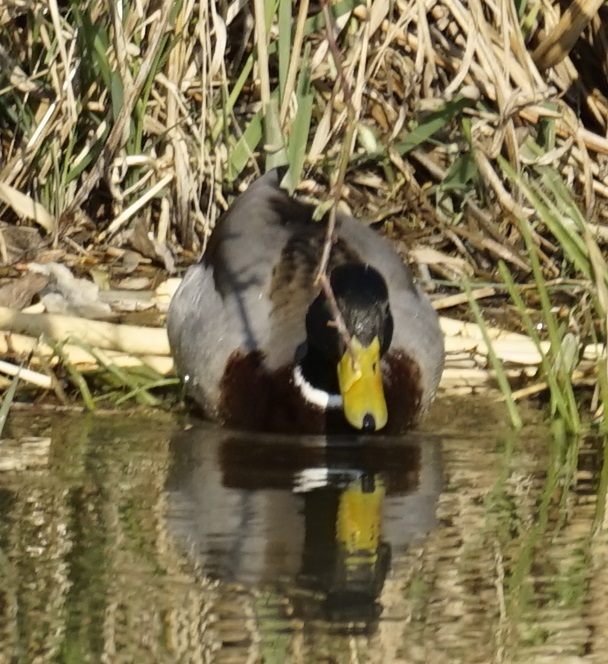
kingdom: Animalia
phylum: Chordata
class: Aves
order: Anseriformes
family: Anatidae
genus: Anas
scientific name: Anas platyrhynchos
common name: Mallard
